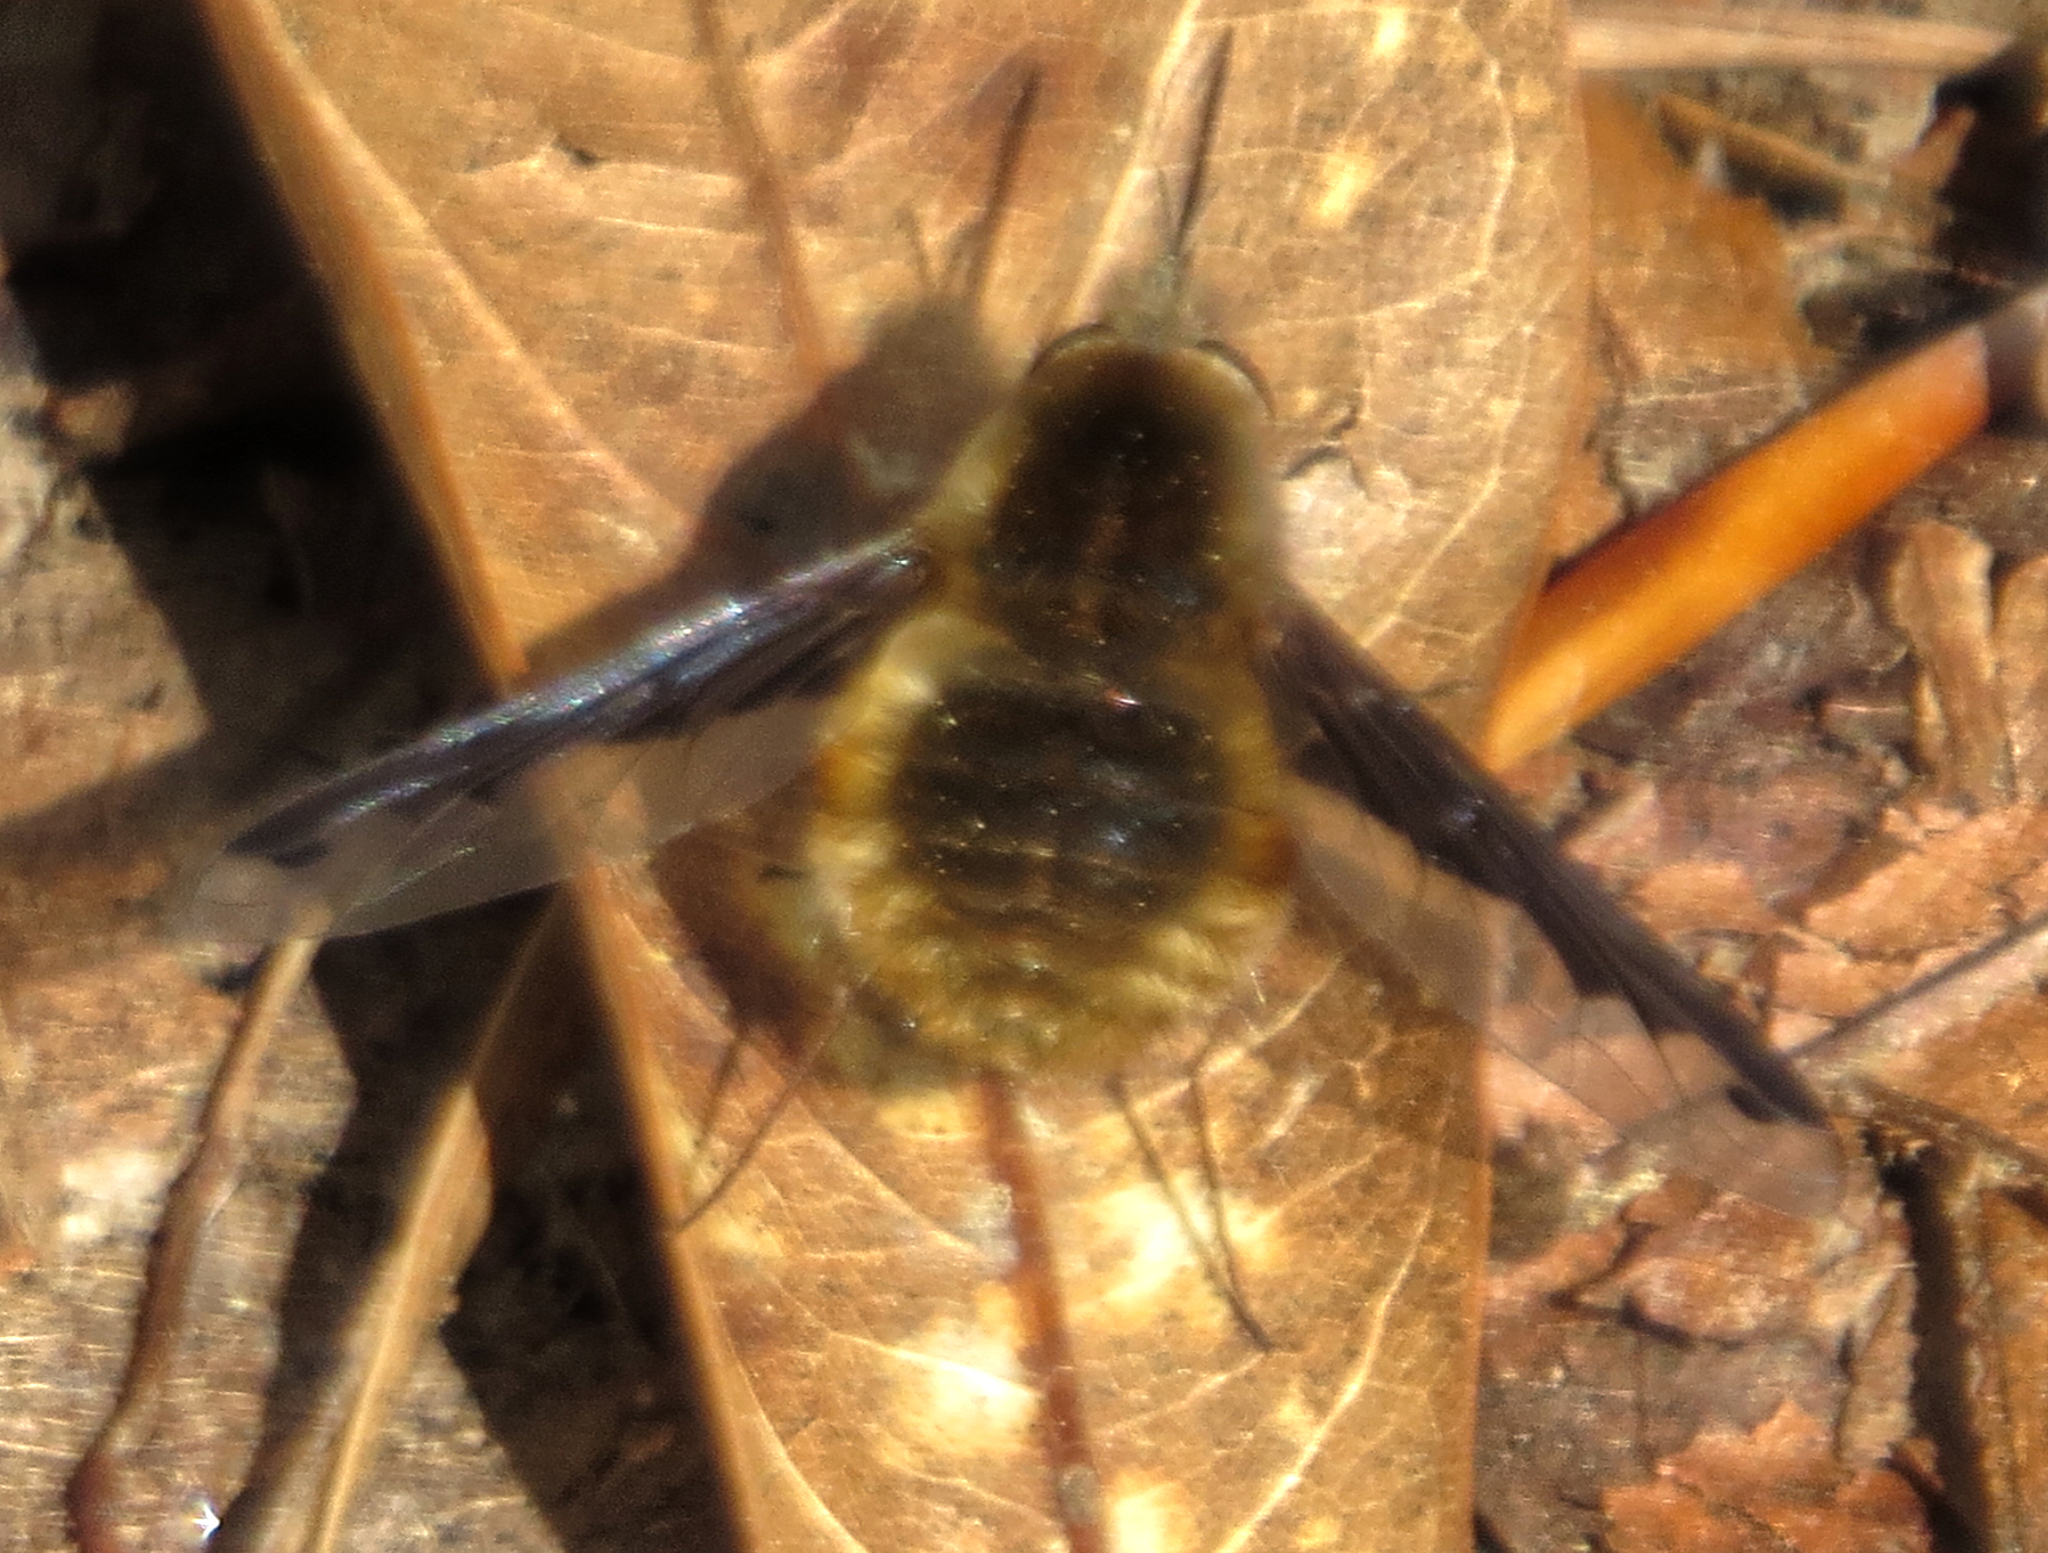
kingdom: Animalia
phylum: Arthropoda
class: Insecta
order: Diptera
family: Bombyliidae
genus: Bombylius
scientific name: Bombylius major
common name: Bee fly
